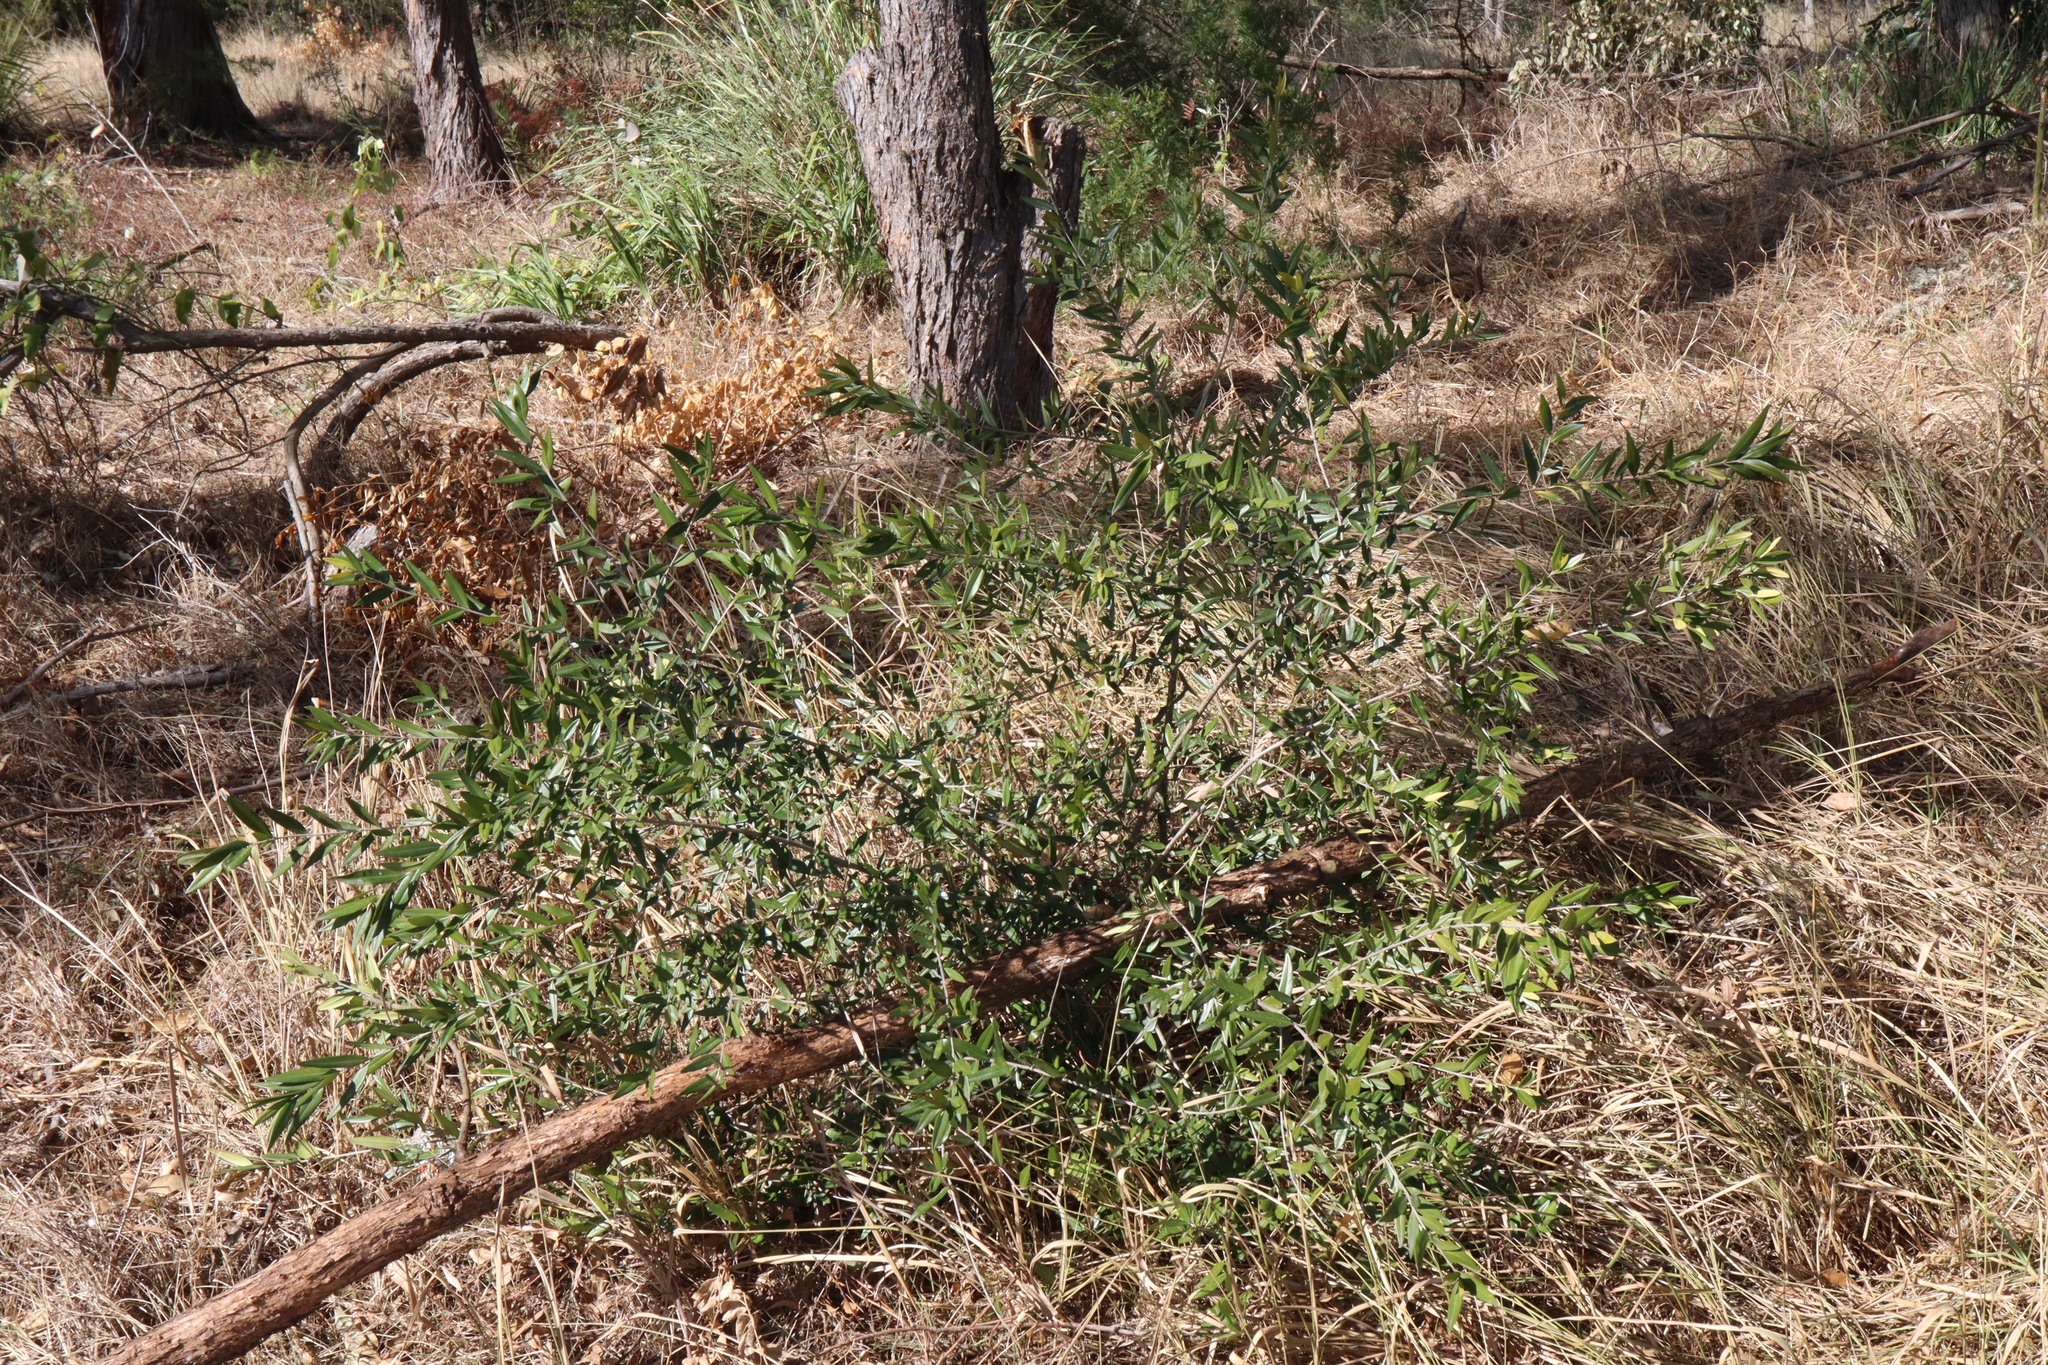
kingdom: Plantae
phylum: Tracheophyta
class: Magnoliopsida
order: Lamiales
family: Oleaceae
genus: Olea
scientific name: Olea europaea
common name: Olive
